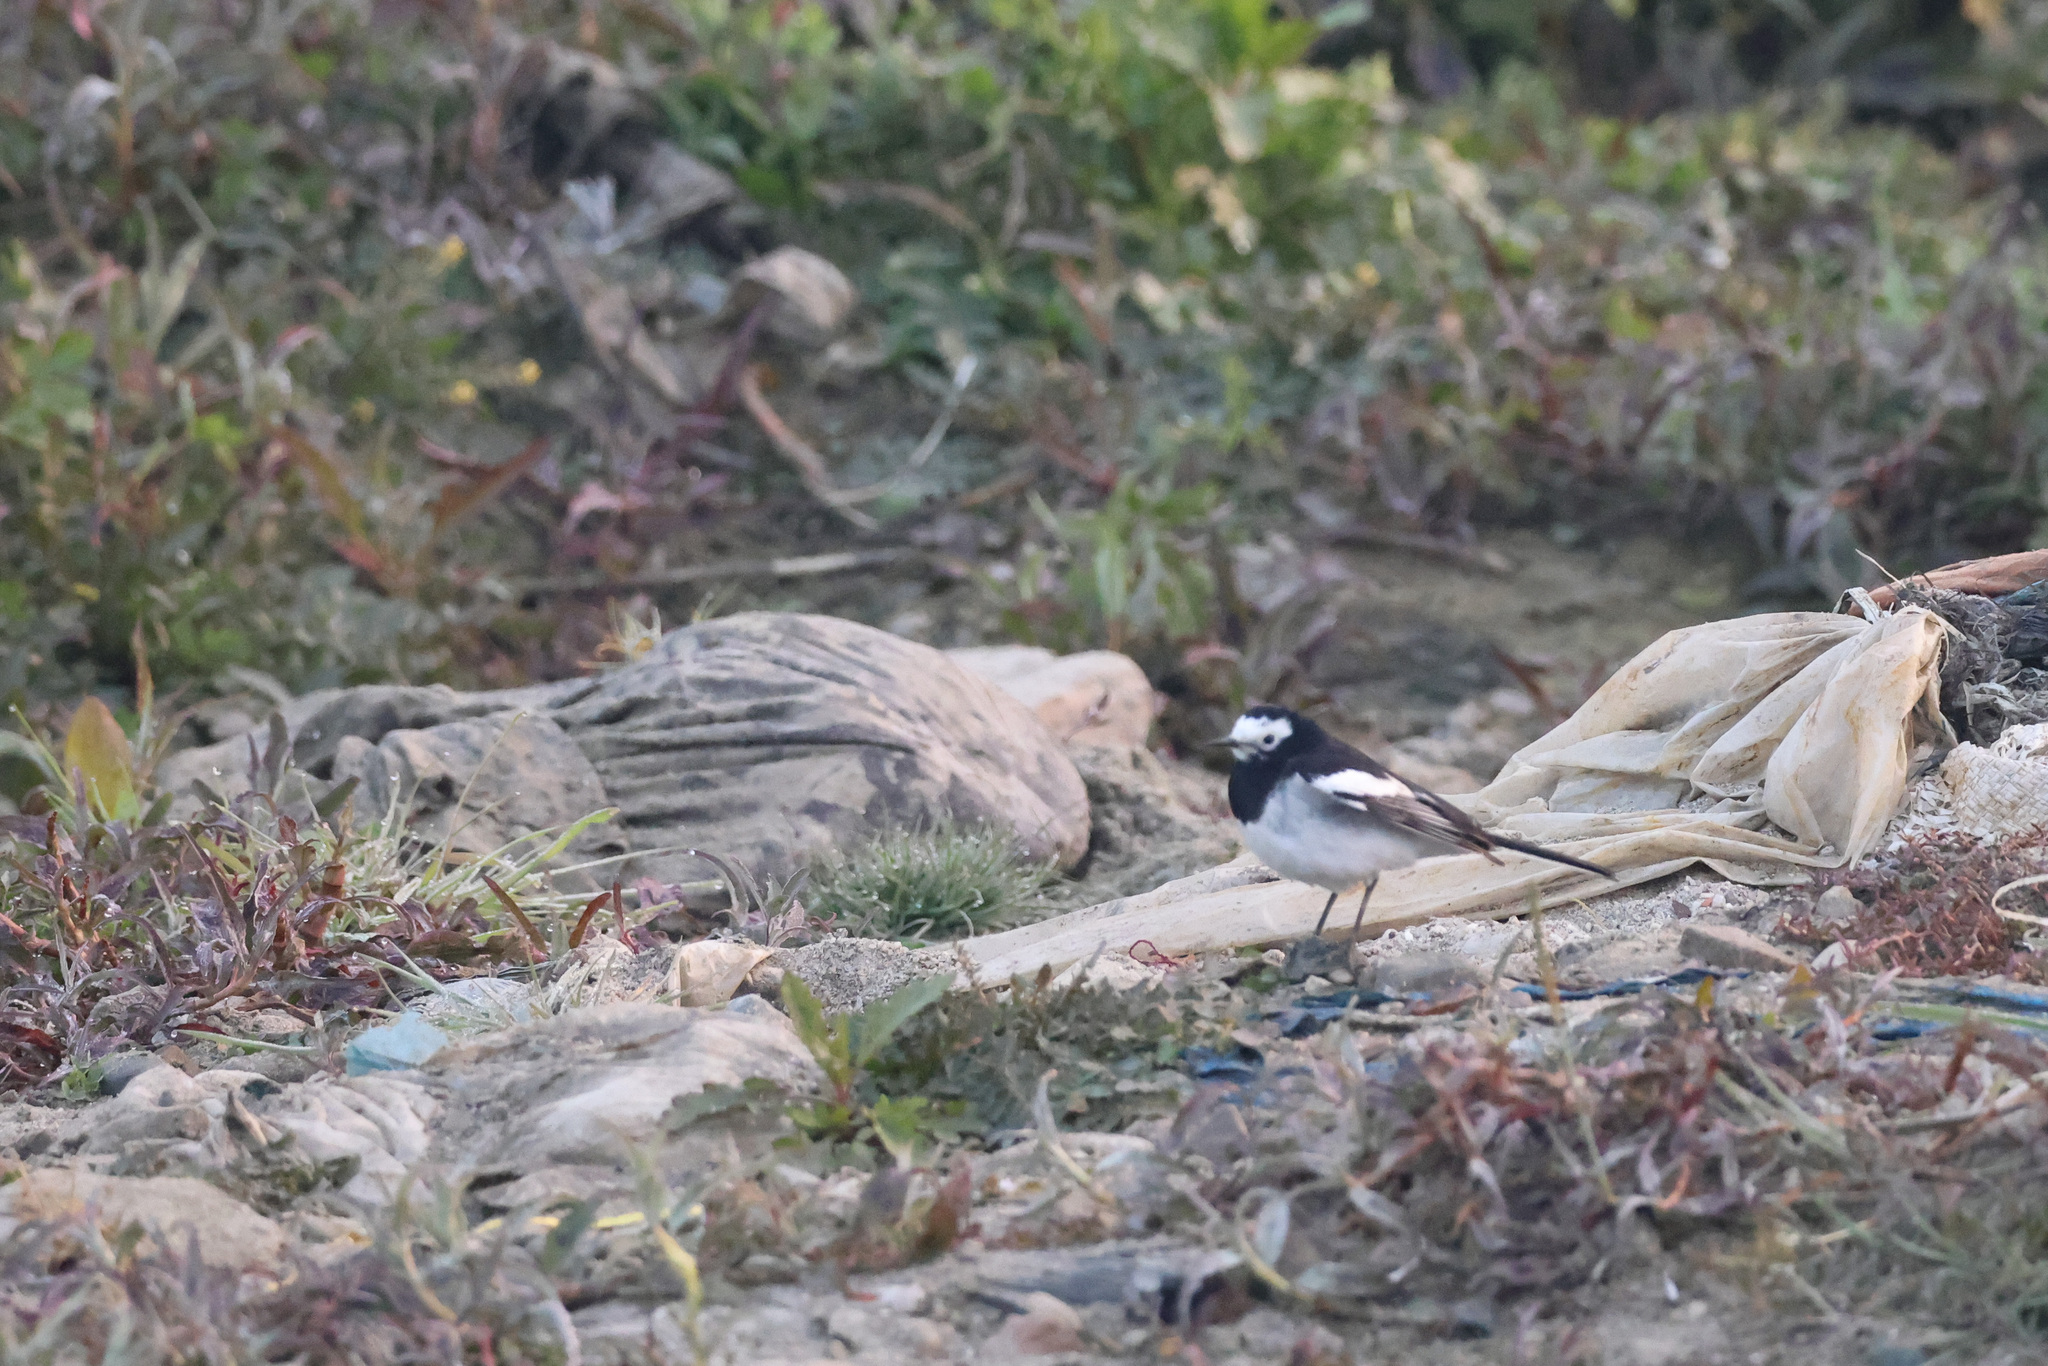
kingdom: Animalia
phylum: Chordata
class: Aves
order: Passeriformes
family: Motacillidae
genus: Motacilla
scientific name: Motacilla alba
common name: White wagtail
